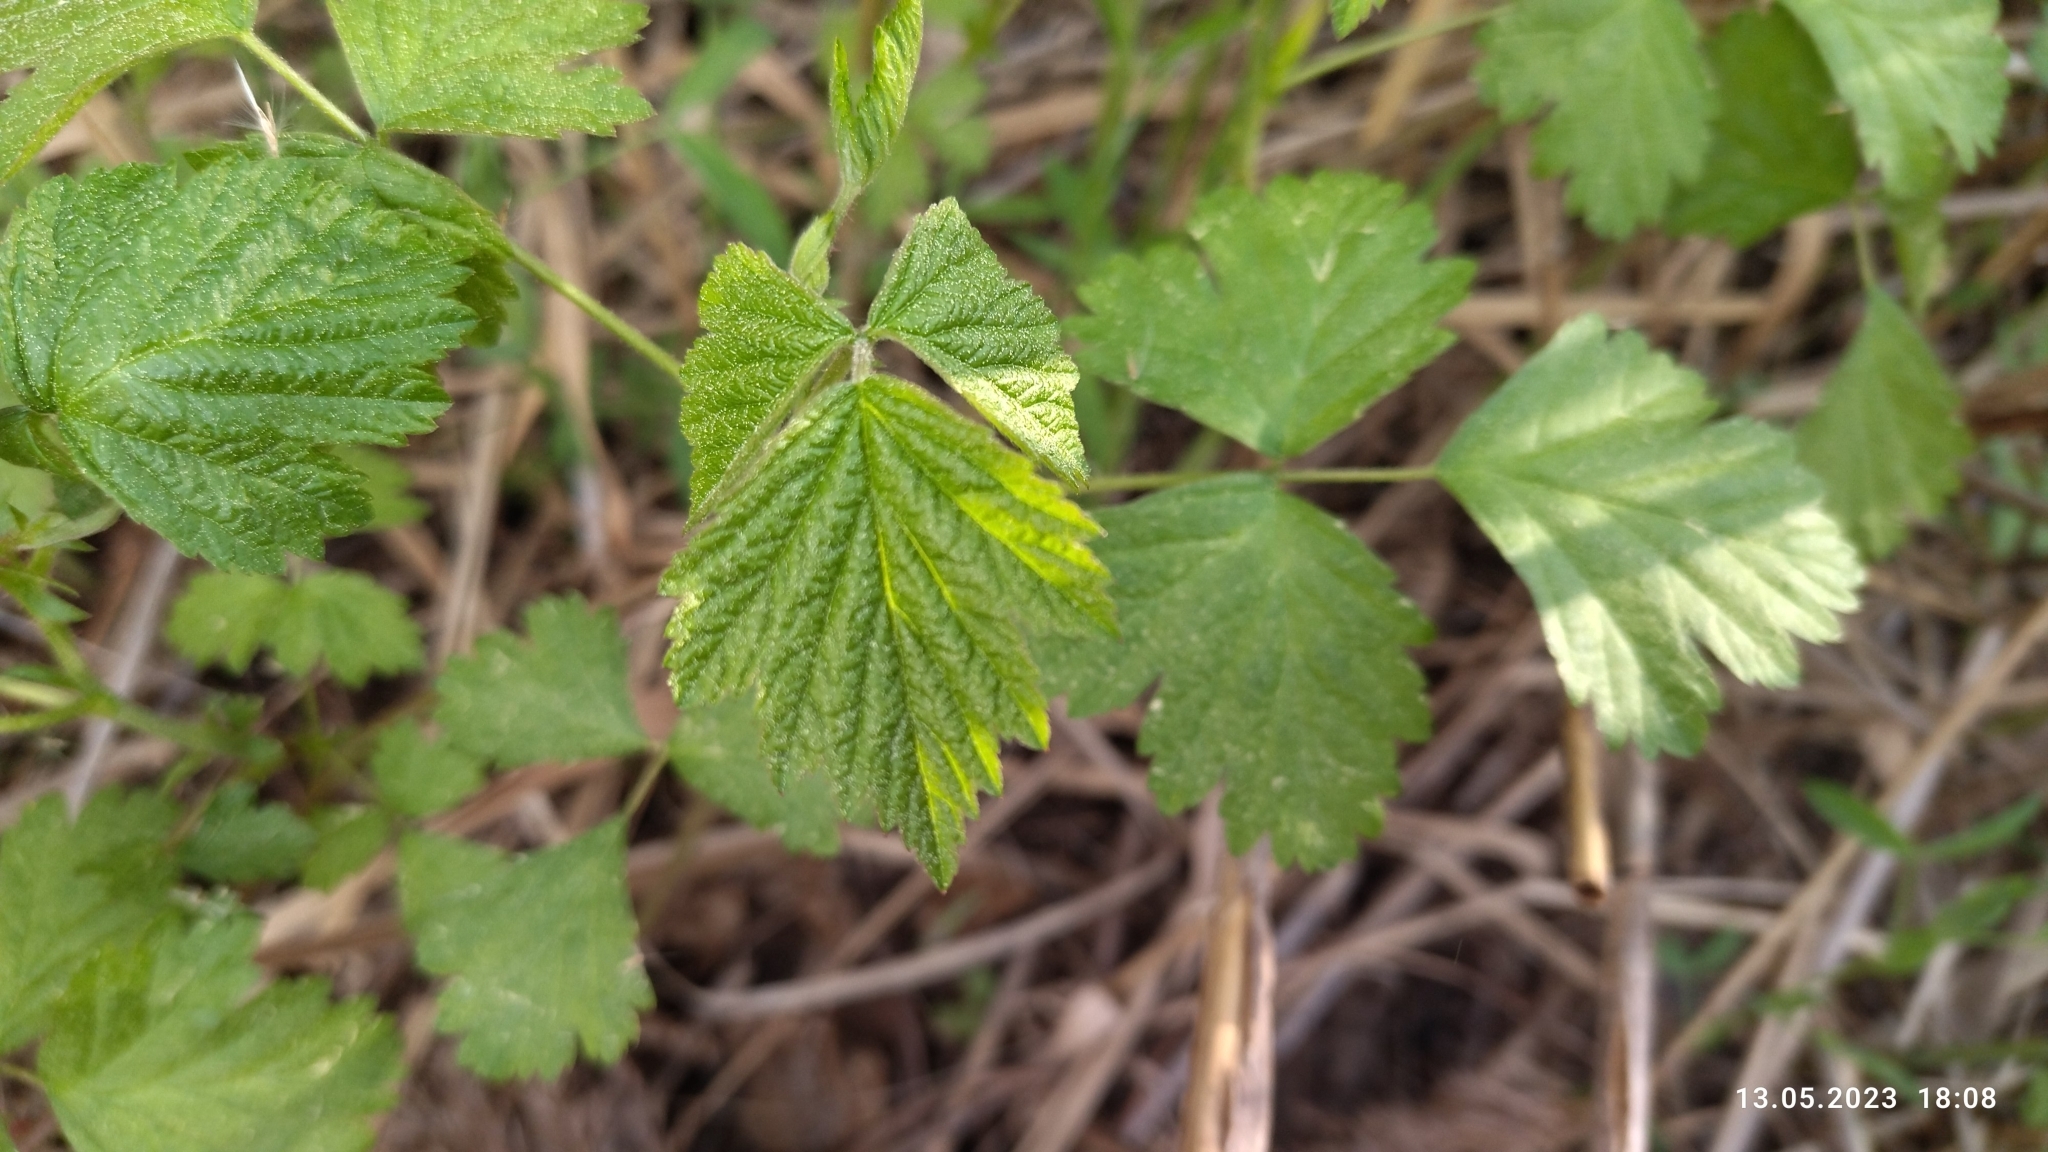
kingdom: Plantae
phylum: Tracheophyta
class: Magnoliopsida
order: Rosales
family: Rosaceae
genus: Rubus
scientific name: Rubus caesius
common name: Dewberry
